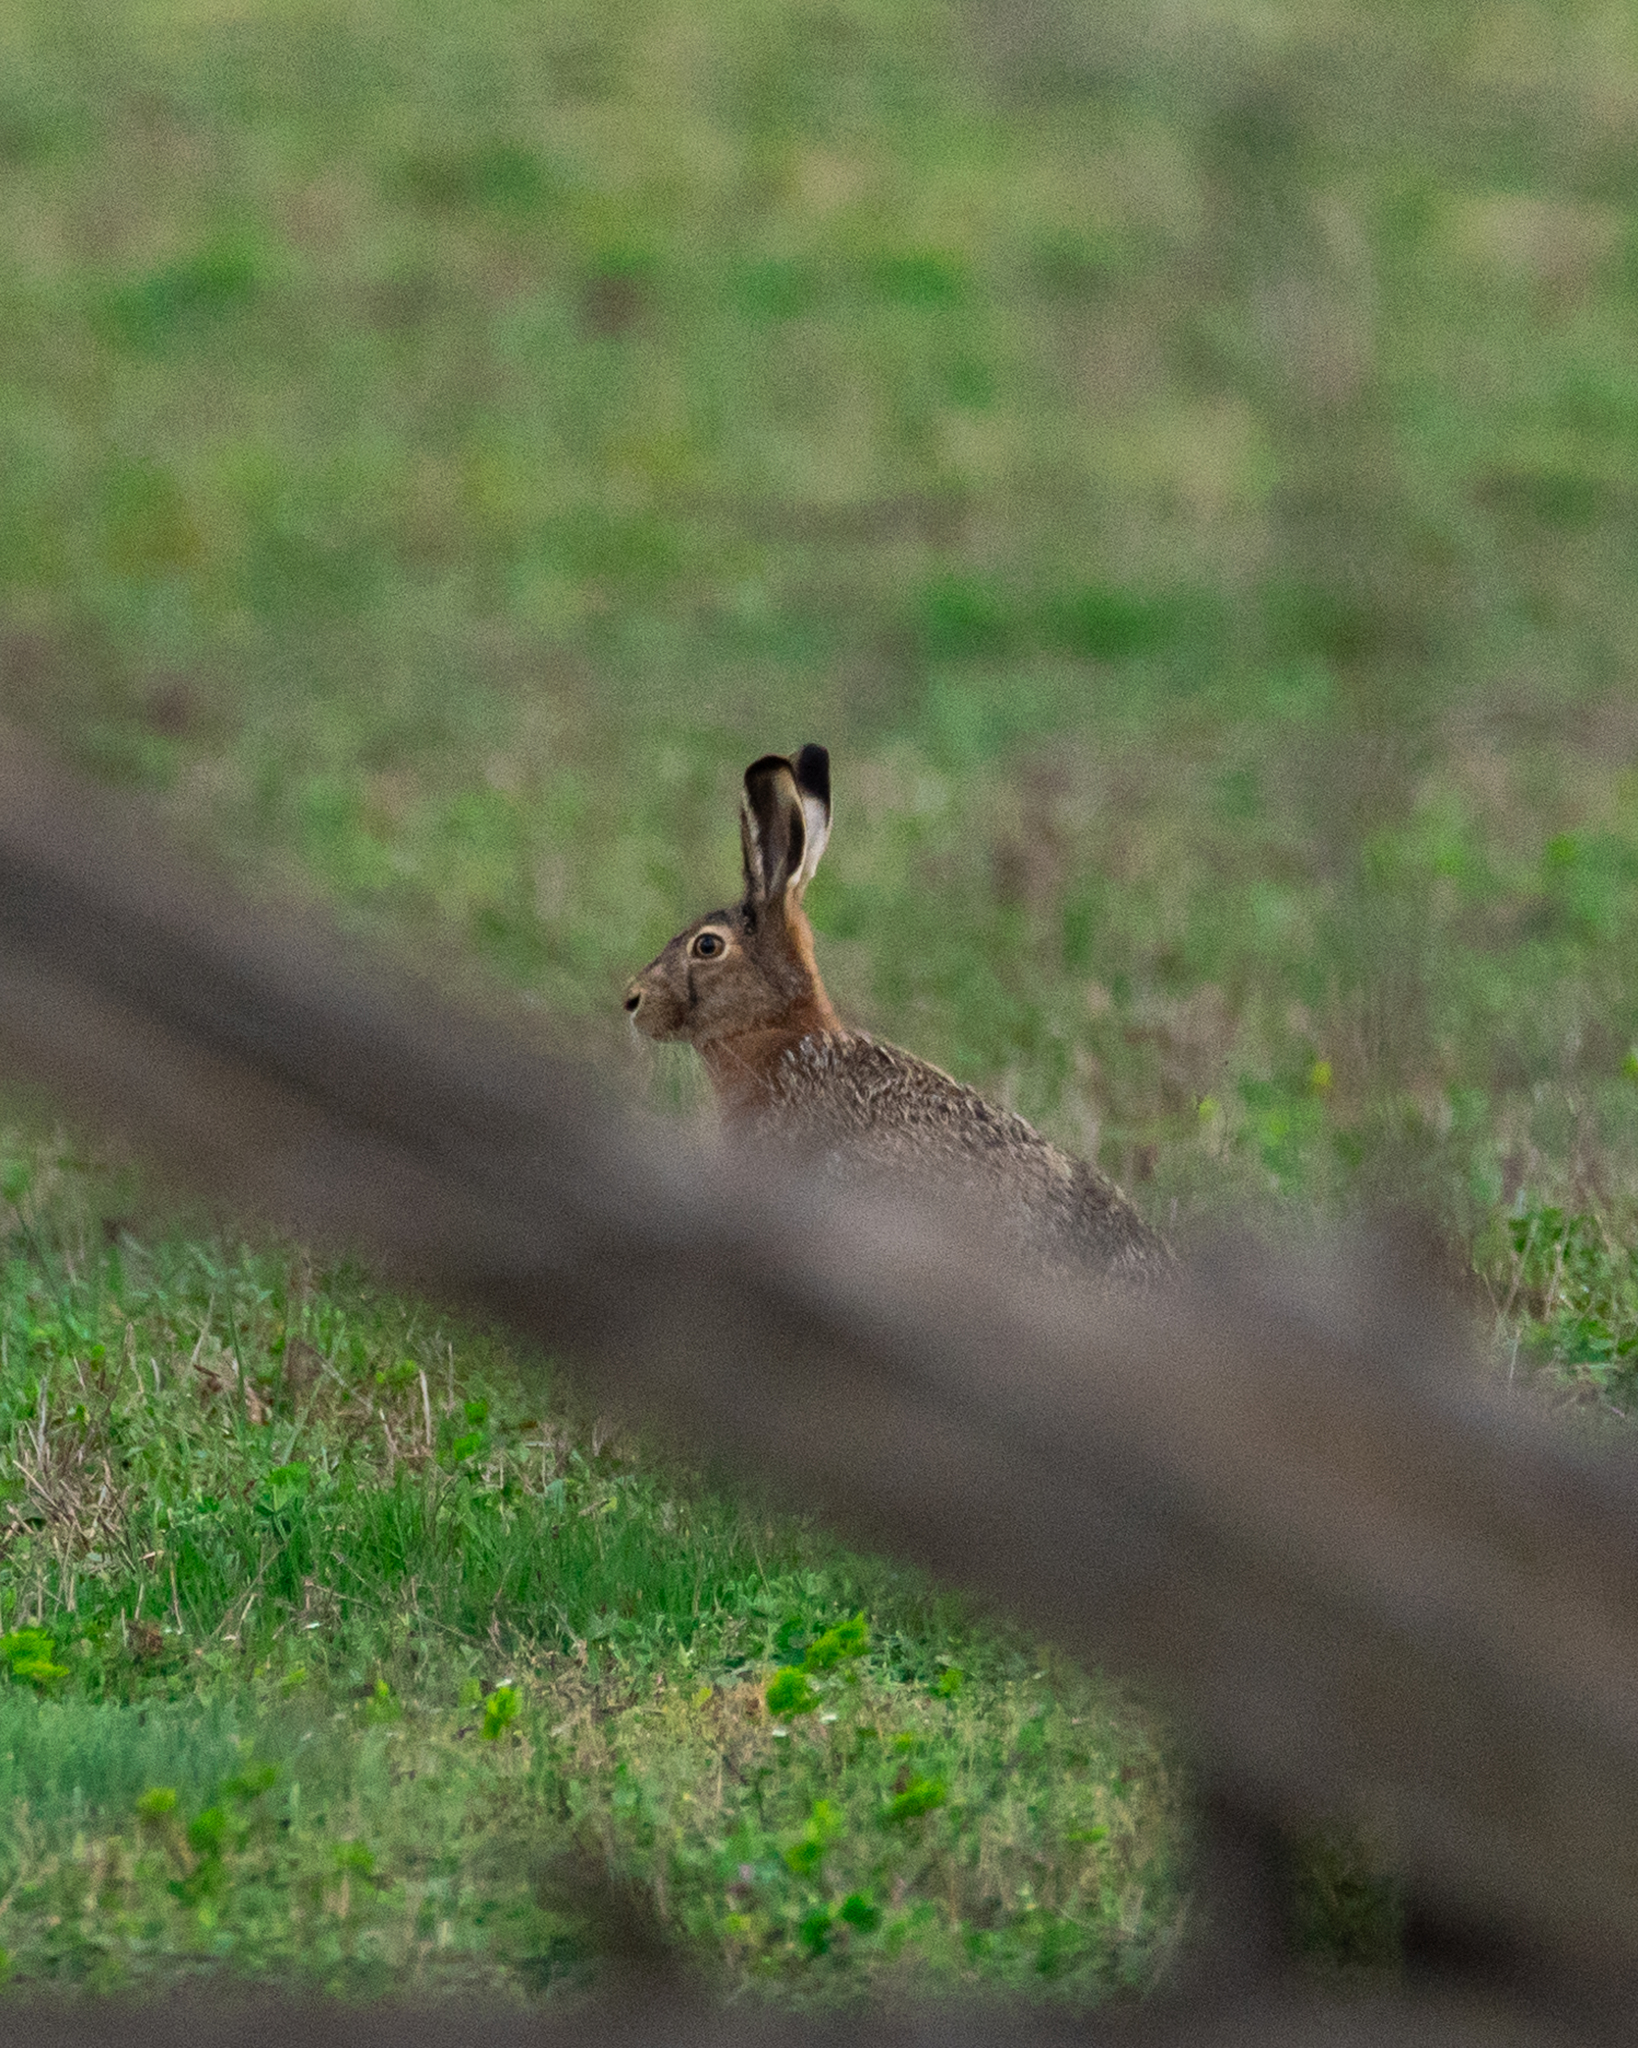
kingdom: Animalia
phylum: Chordata
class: Mammalia
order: Lagomorpha
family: Leporidae
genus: Lepus
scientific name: Lepus europaeus
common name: European hare
